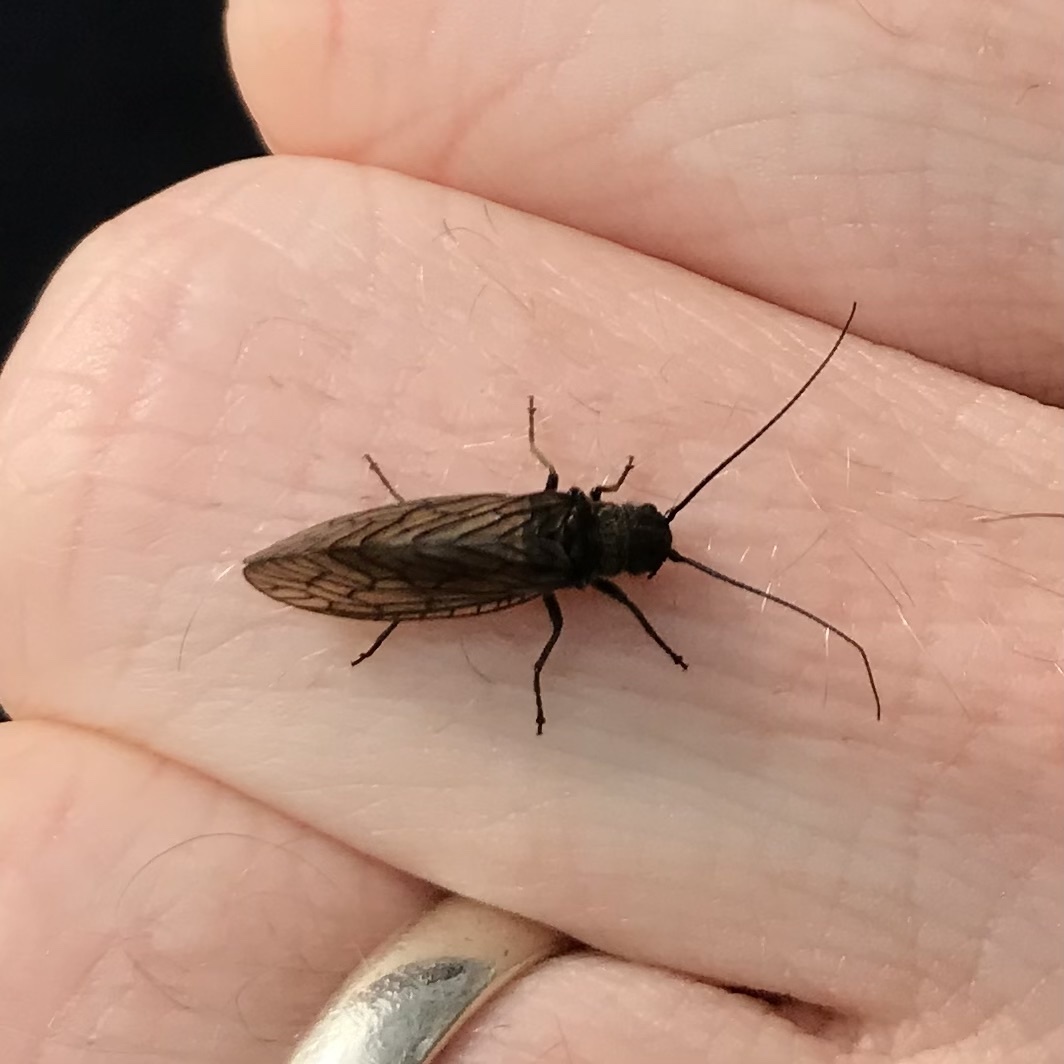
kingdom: Animalia
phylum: Arthropoda
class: Insecta
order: Megaloptera
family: Sialidae
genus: Sialis
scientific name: Sialis
